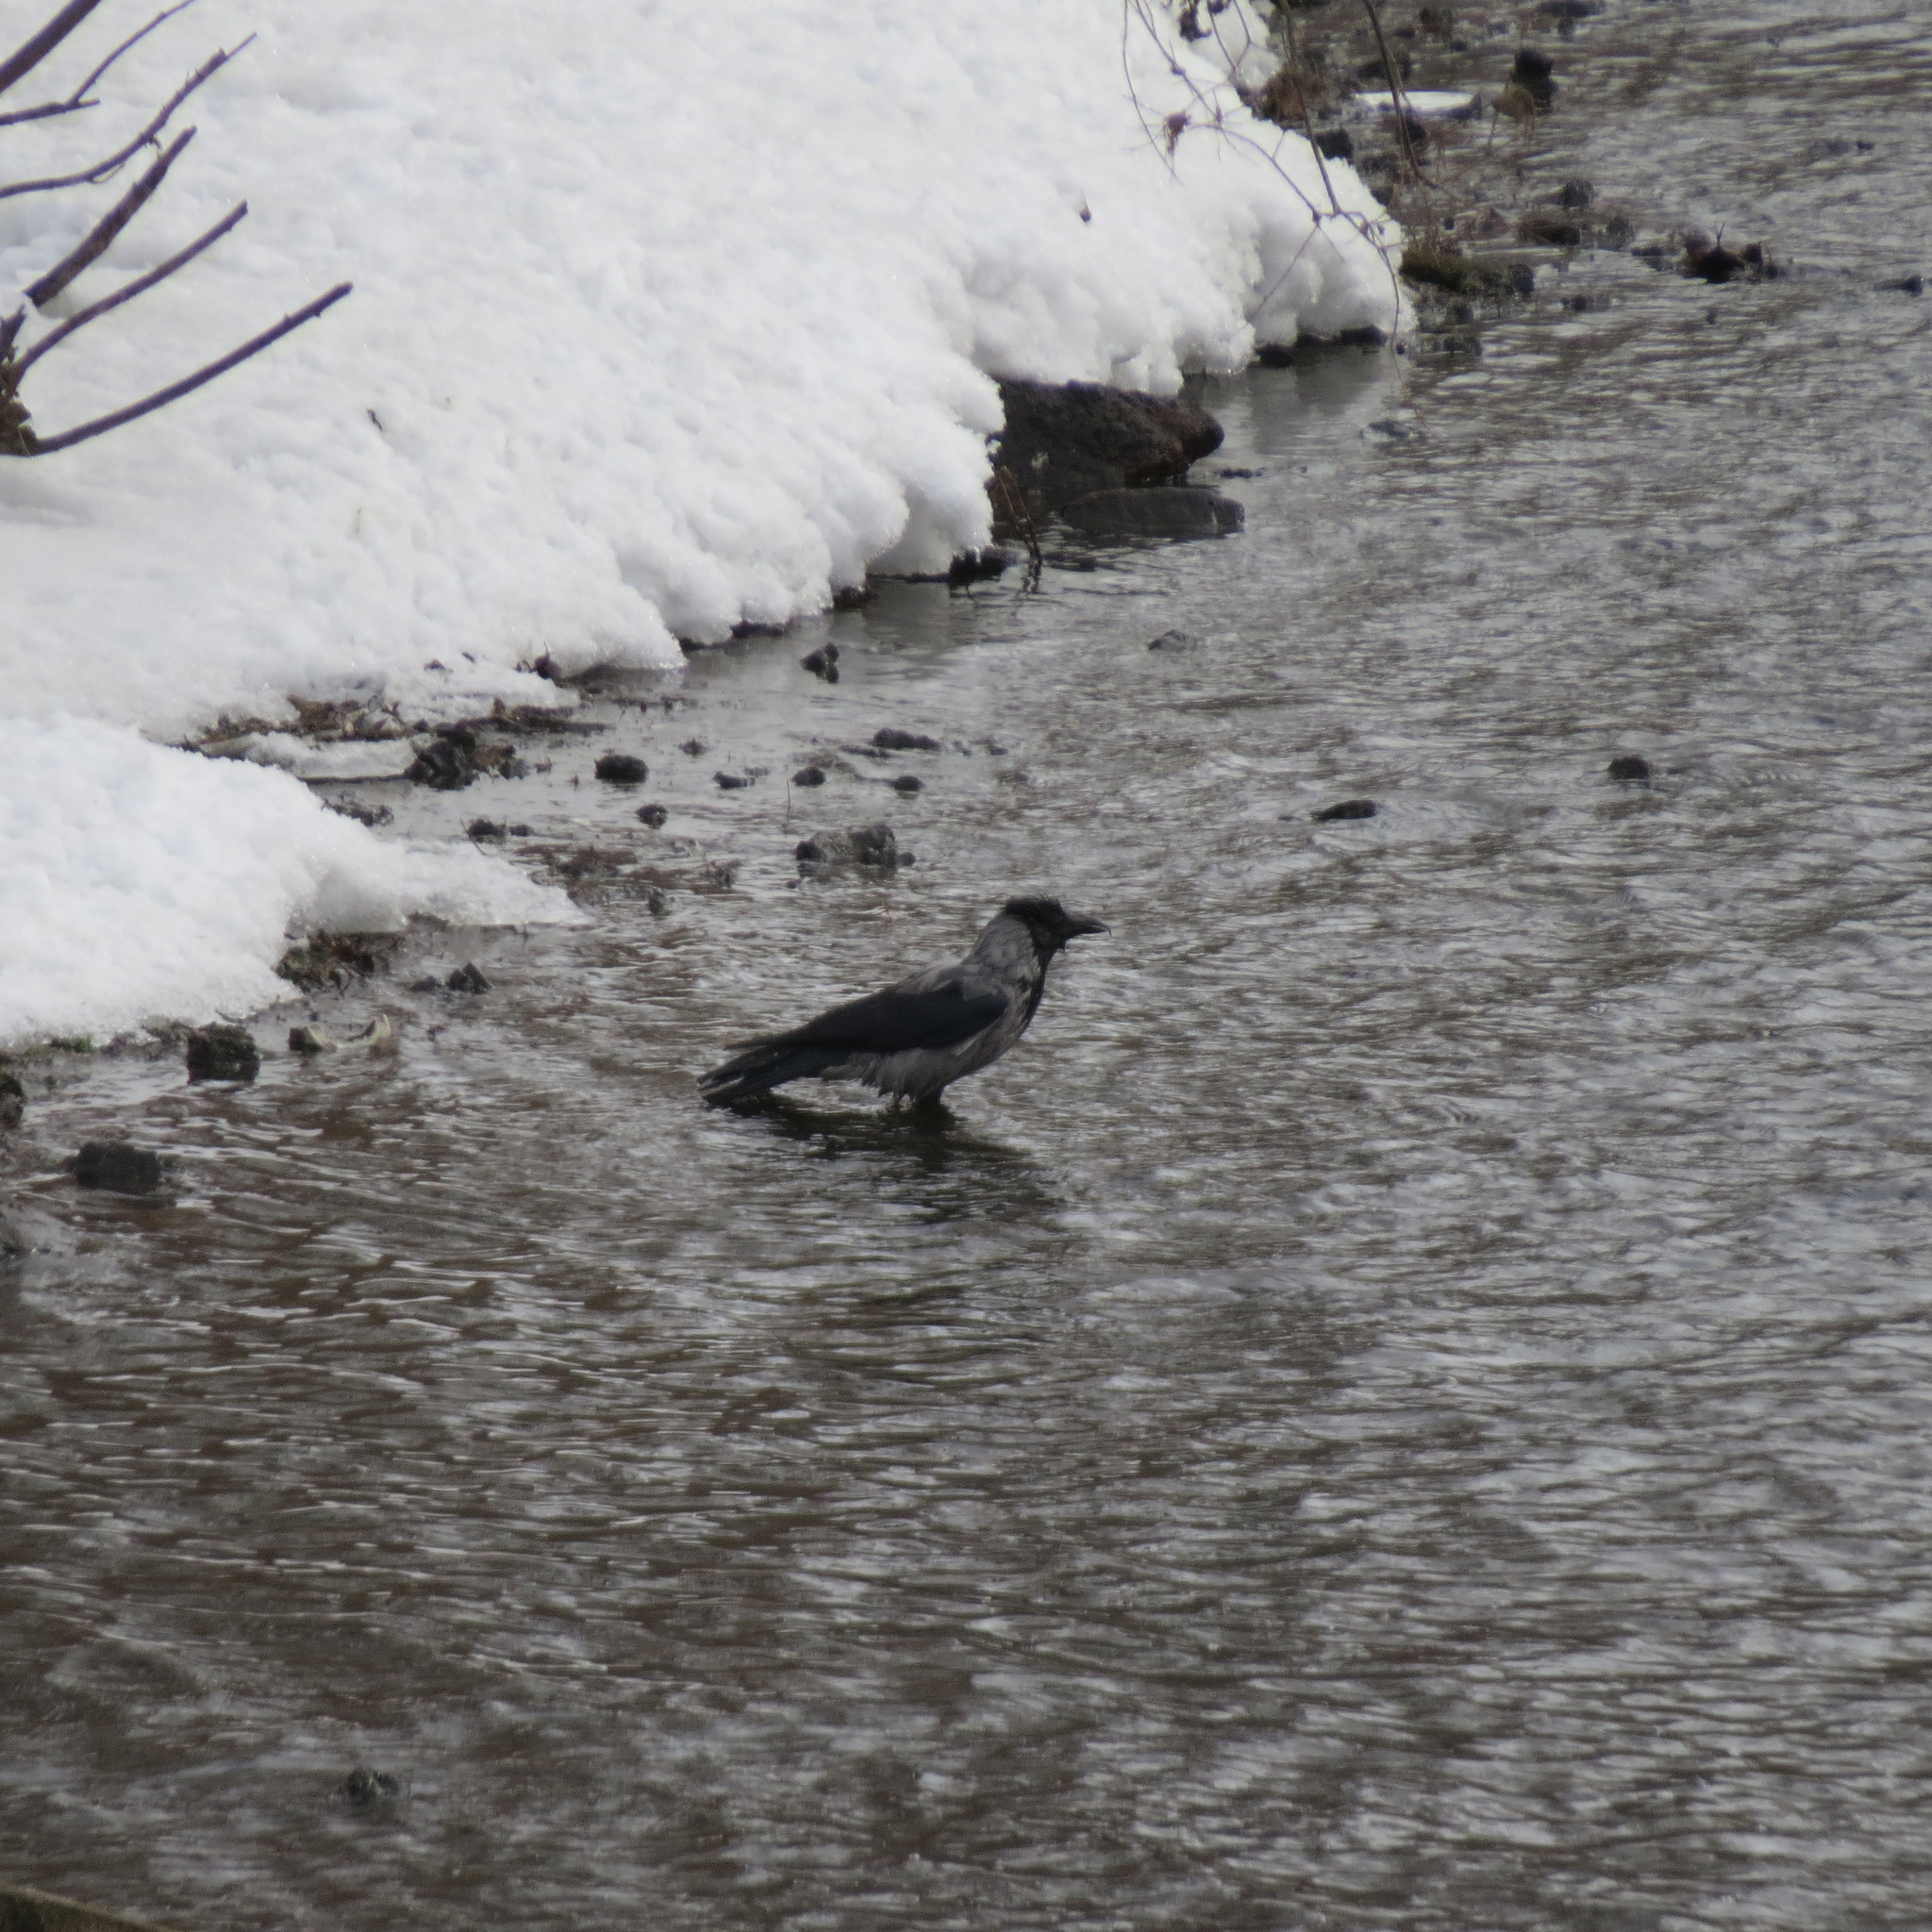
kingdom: Animalia
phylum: Chordata
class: Aves
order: Passeriformes
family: Corvidae
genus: Corvus
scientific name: Corvus cornix
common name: Hooded crow
